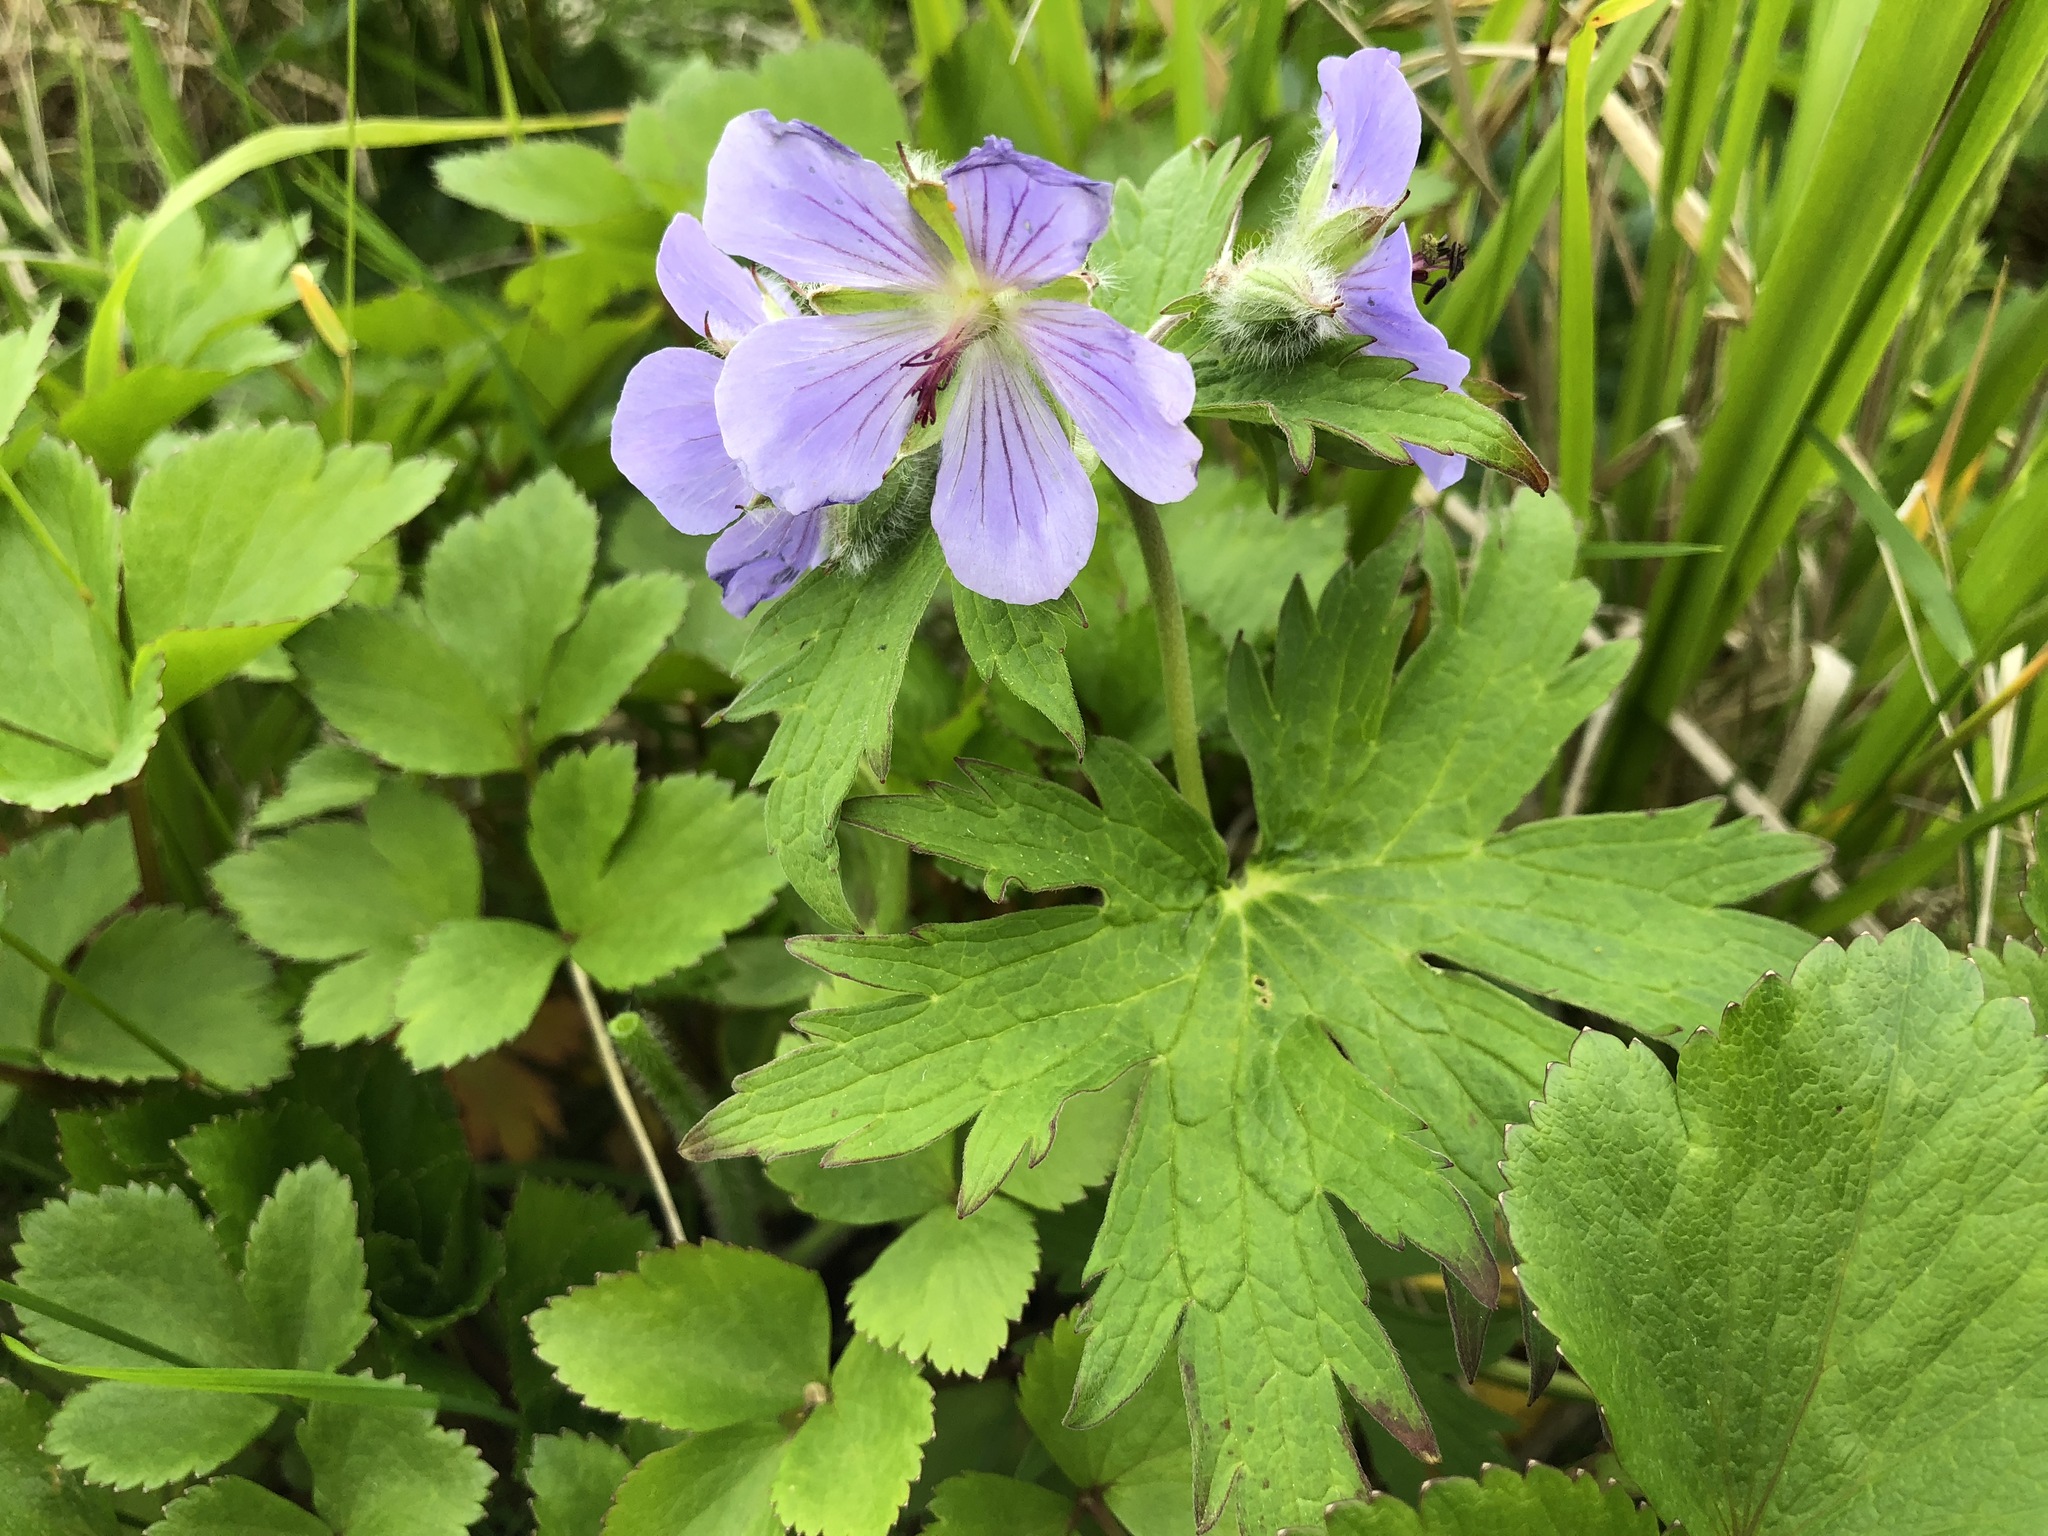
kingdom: Plantae
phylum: Tracheophyta
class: Magnoliopsida
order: Geraniales
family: Geraniaceae
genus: Geranium
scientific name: Geranium erianthum
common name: Northern crane's-bill
